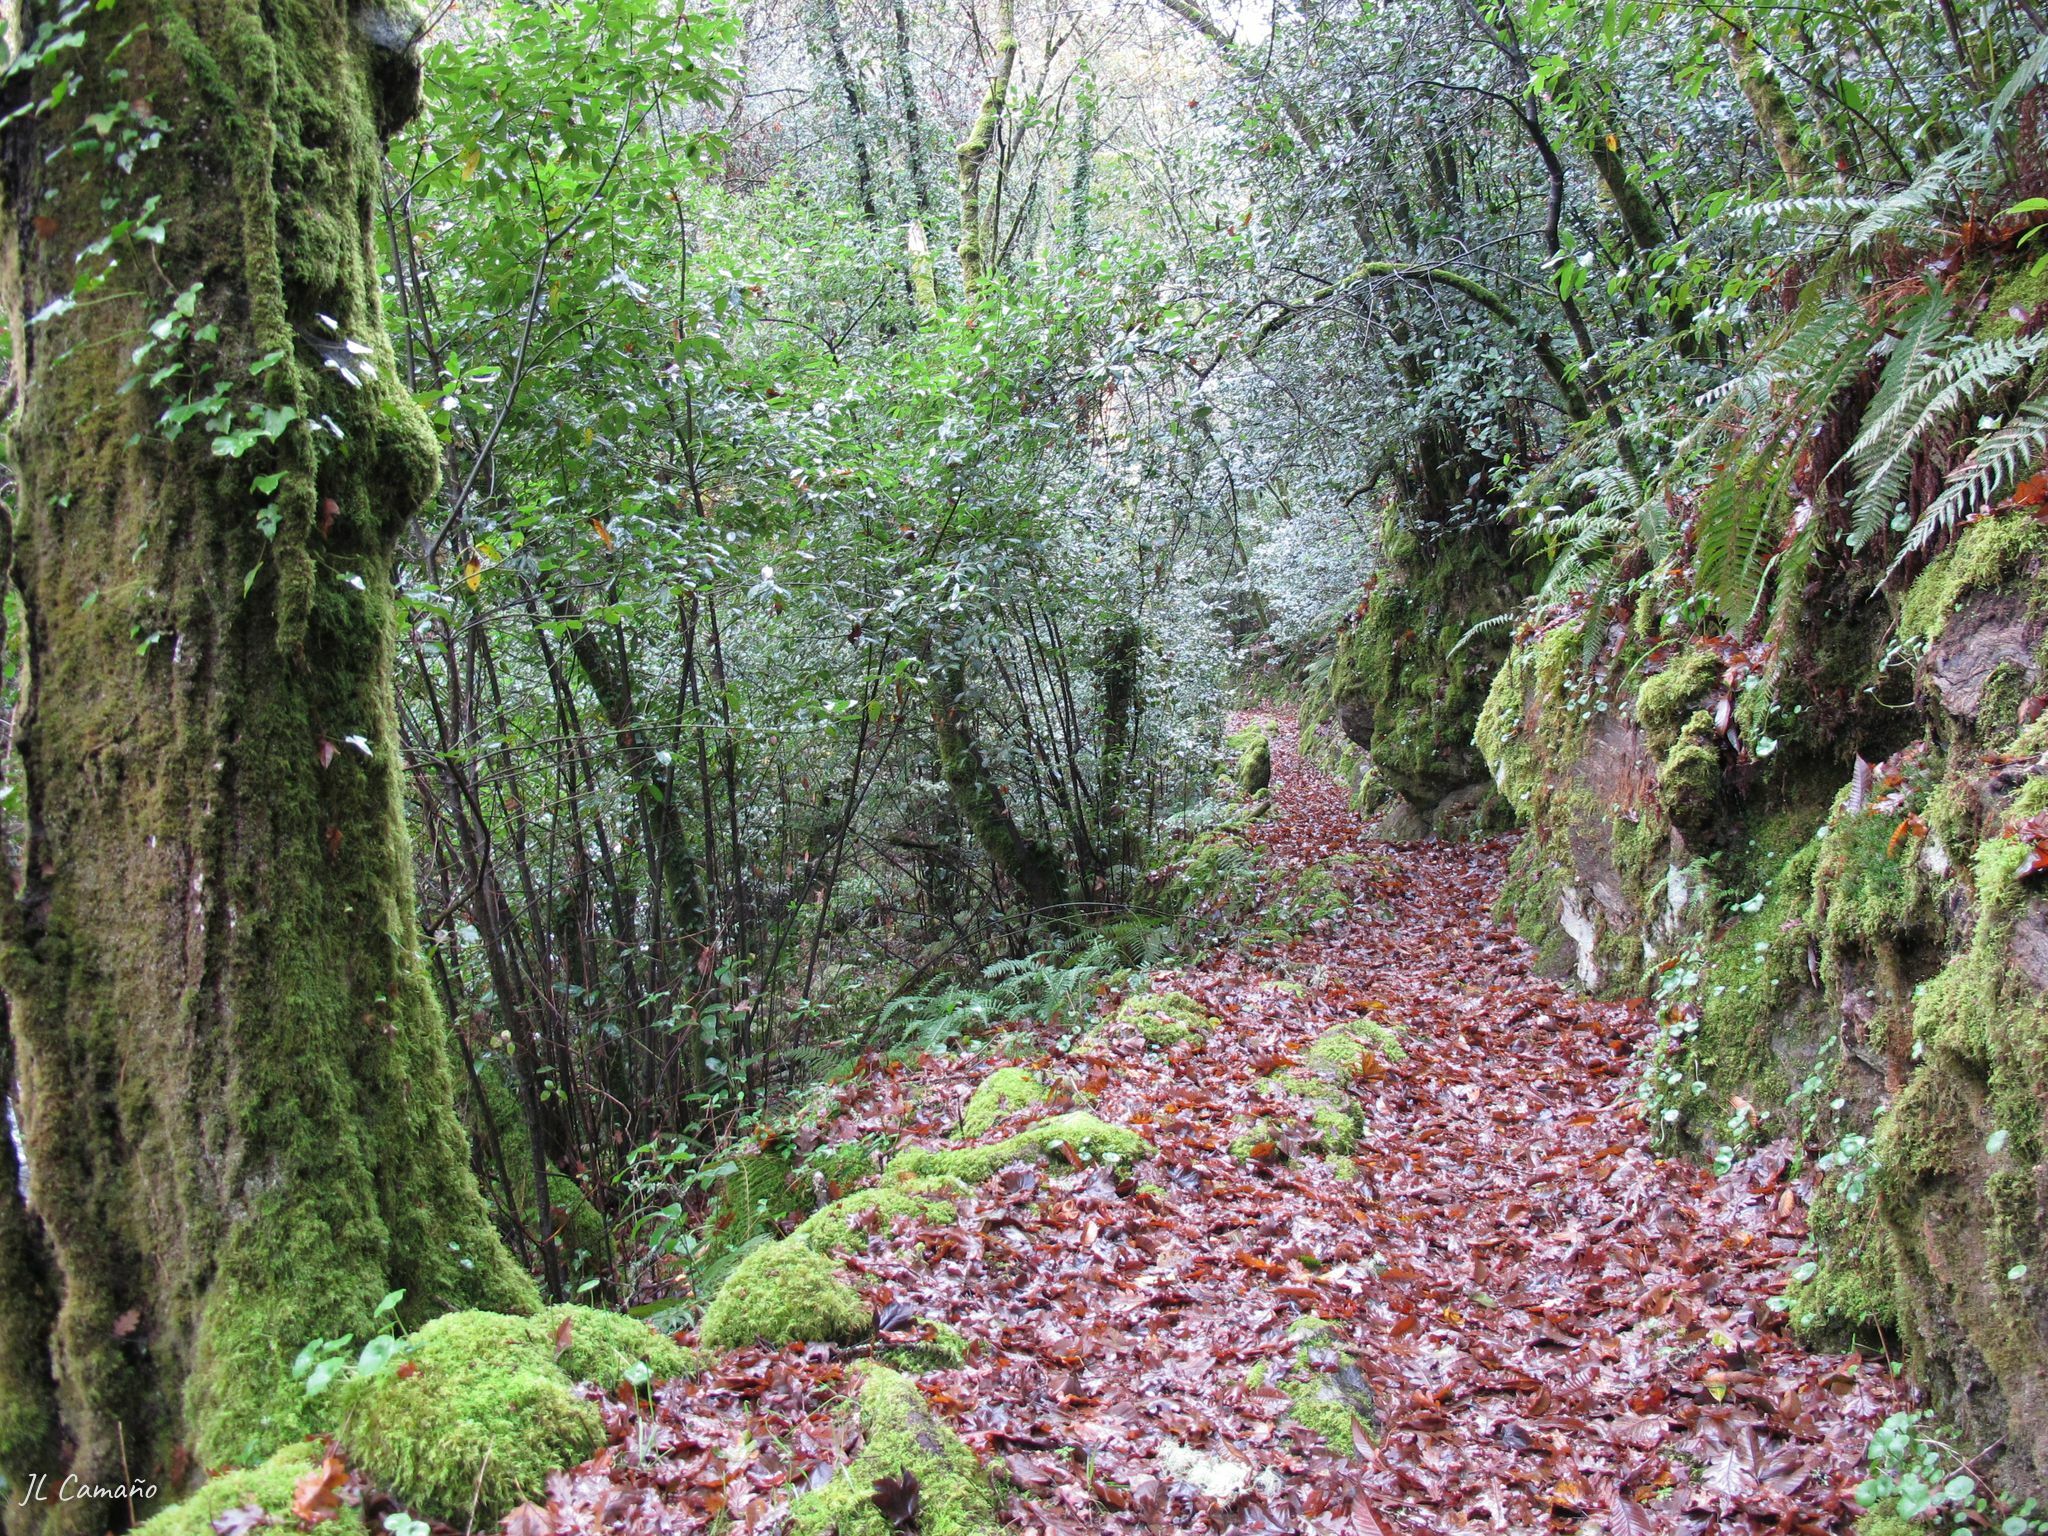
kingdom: Plantae
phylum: Bryophyta
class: Bryopsida
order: Bryales
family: Mniaceae
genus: Mnium
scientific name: Mnium hornum
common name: Swan's-neck leafy moss
